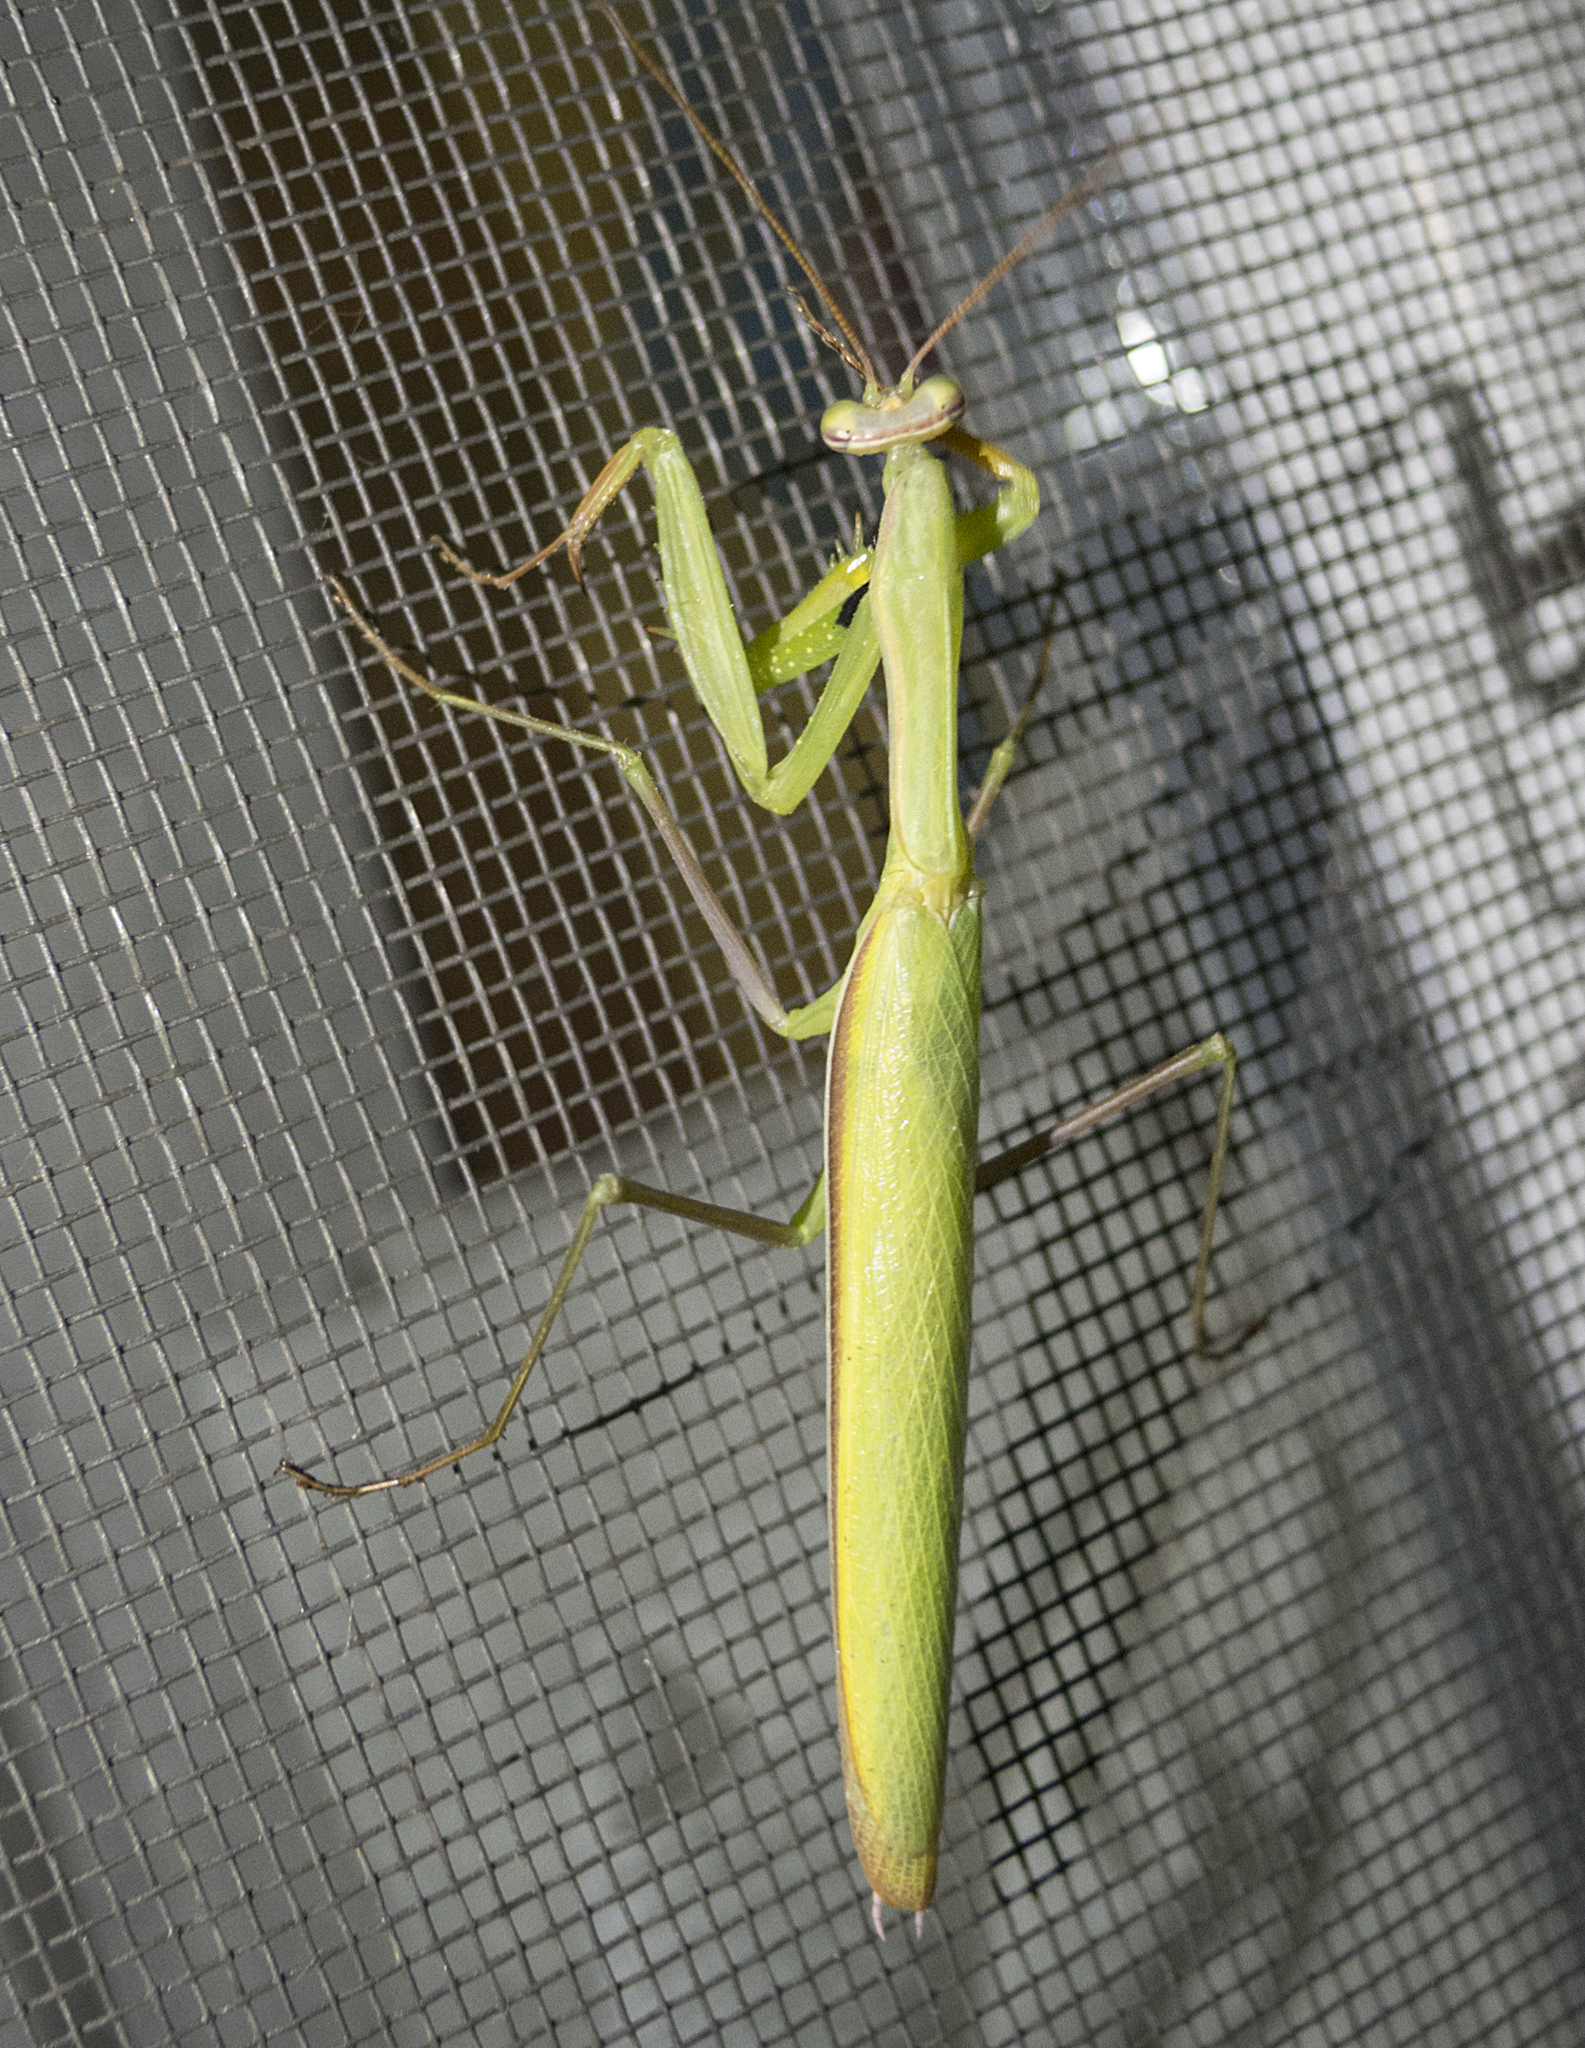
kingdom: Animalia
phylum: Arthropoda
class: Insecta
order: Mantodea
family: Mantidae
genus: Mantis
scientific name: Mantis religiosa
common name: Praying mantis
